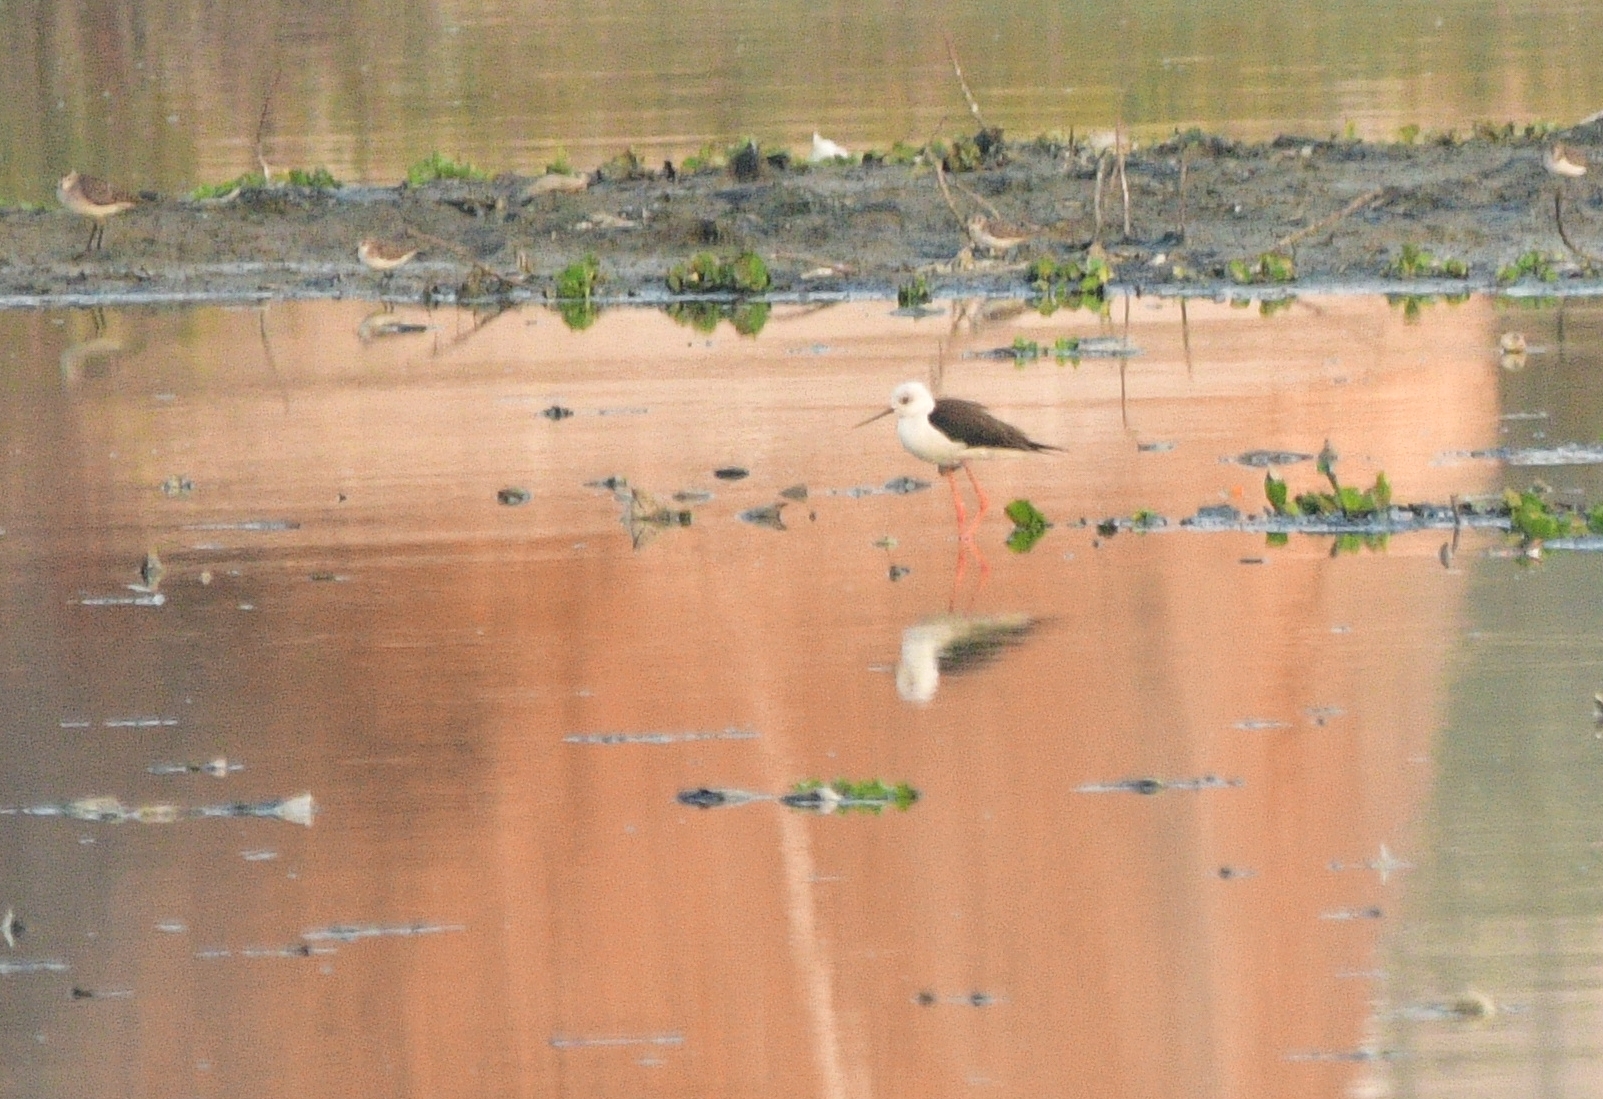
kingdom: Animalia
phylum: Chordata
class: Aves
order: Charadriiformes
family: Recurvirostridae
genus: Himantopus
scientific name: Himantopus himantopus
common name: Black-winged stilt
